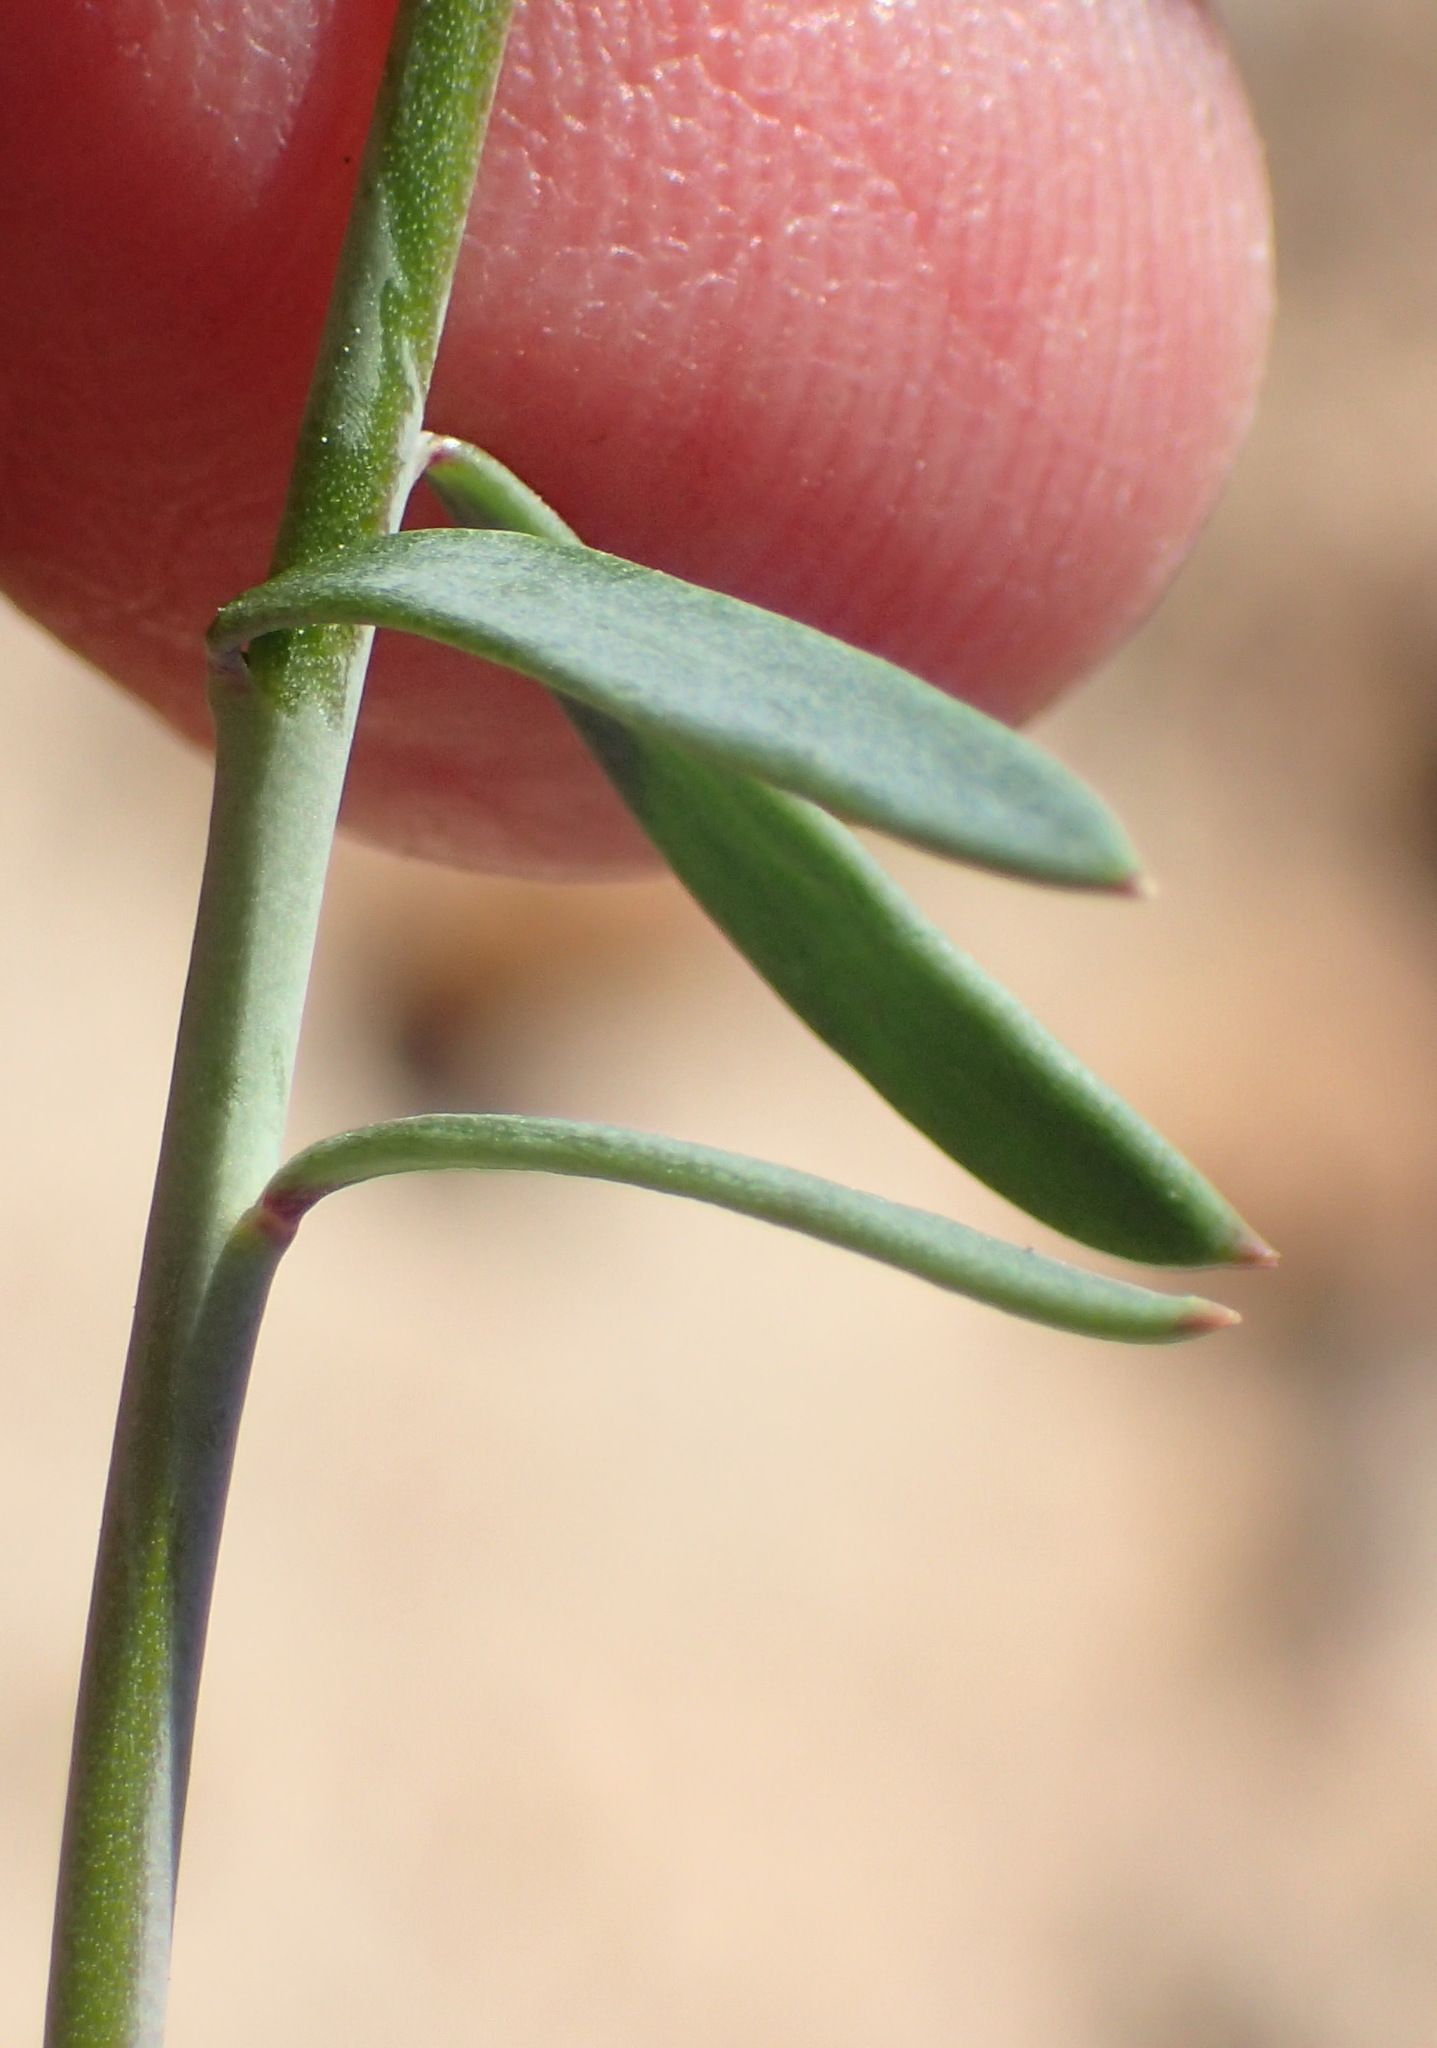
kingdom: Plantae
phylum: Tracheophyta
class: Magnoliopsida
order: Brassicales
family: Brassicaceae
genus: Heliophila
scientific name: Heliophila linearis
